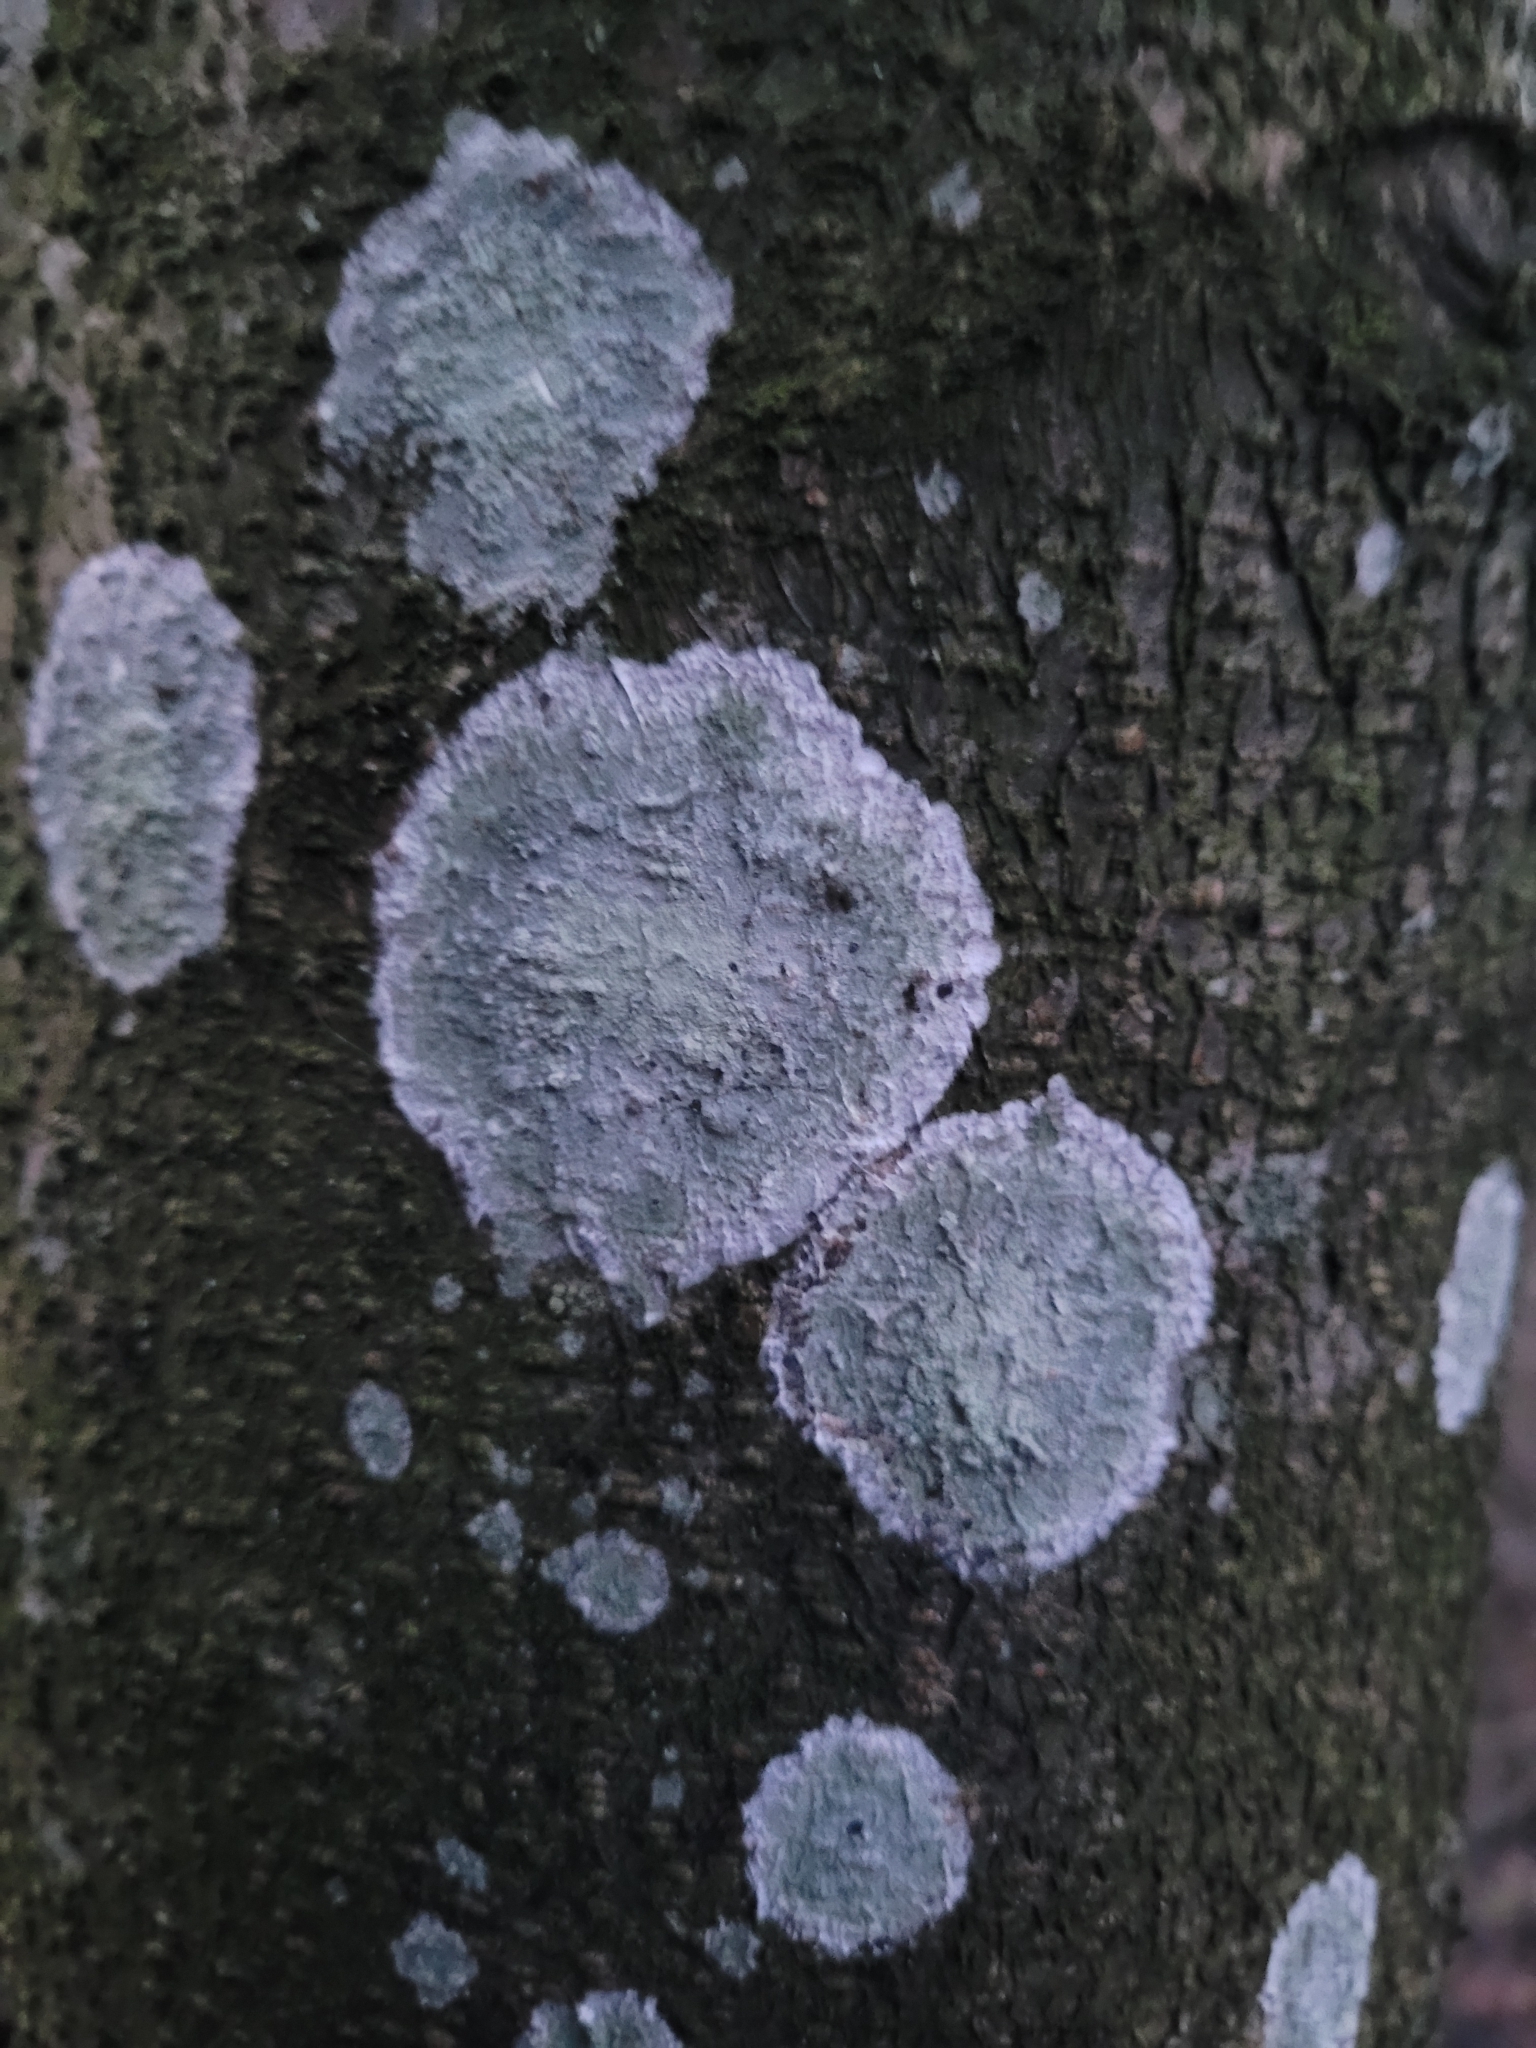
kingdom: Fungi
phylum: Ascomycota
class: Lecanoromycetes
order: Ostropales
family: Phlyctidaceae
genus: Phlyctis
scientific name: Phlyctis argena
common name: Whitewash lichen
